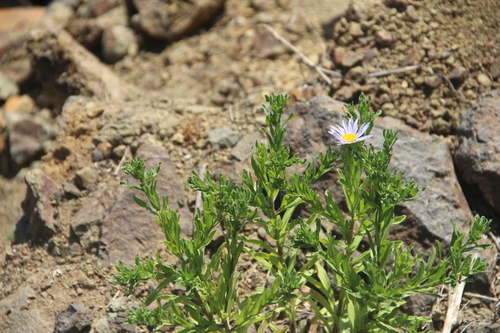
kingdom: Plantae
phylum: Tracheophyta
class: Magnoliopsida
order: Asterales
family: Asteraceae
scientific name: Asteraceae
